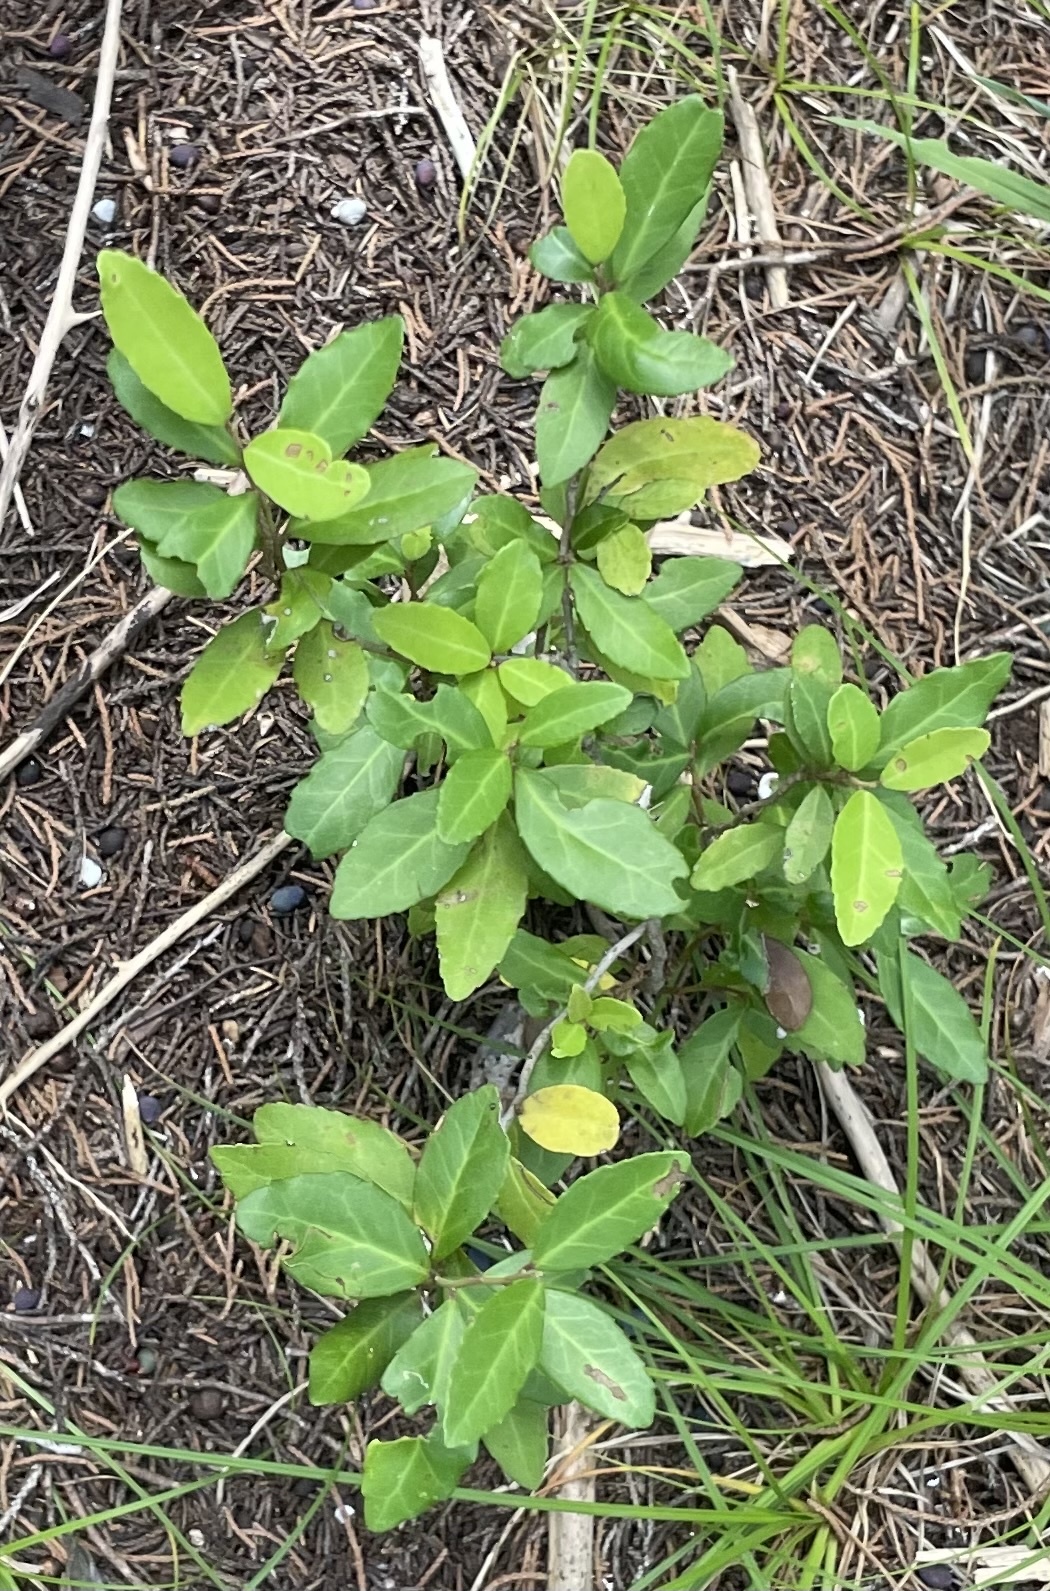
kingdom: Plantae
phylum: Tracheophyta
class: Magnoliopsida
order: Aquifoliales
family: Aquifoliaceae
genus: Ilex
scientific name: Ilex vomitoria
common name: Yaupon holly
